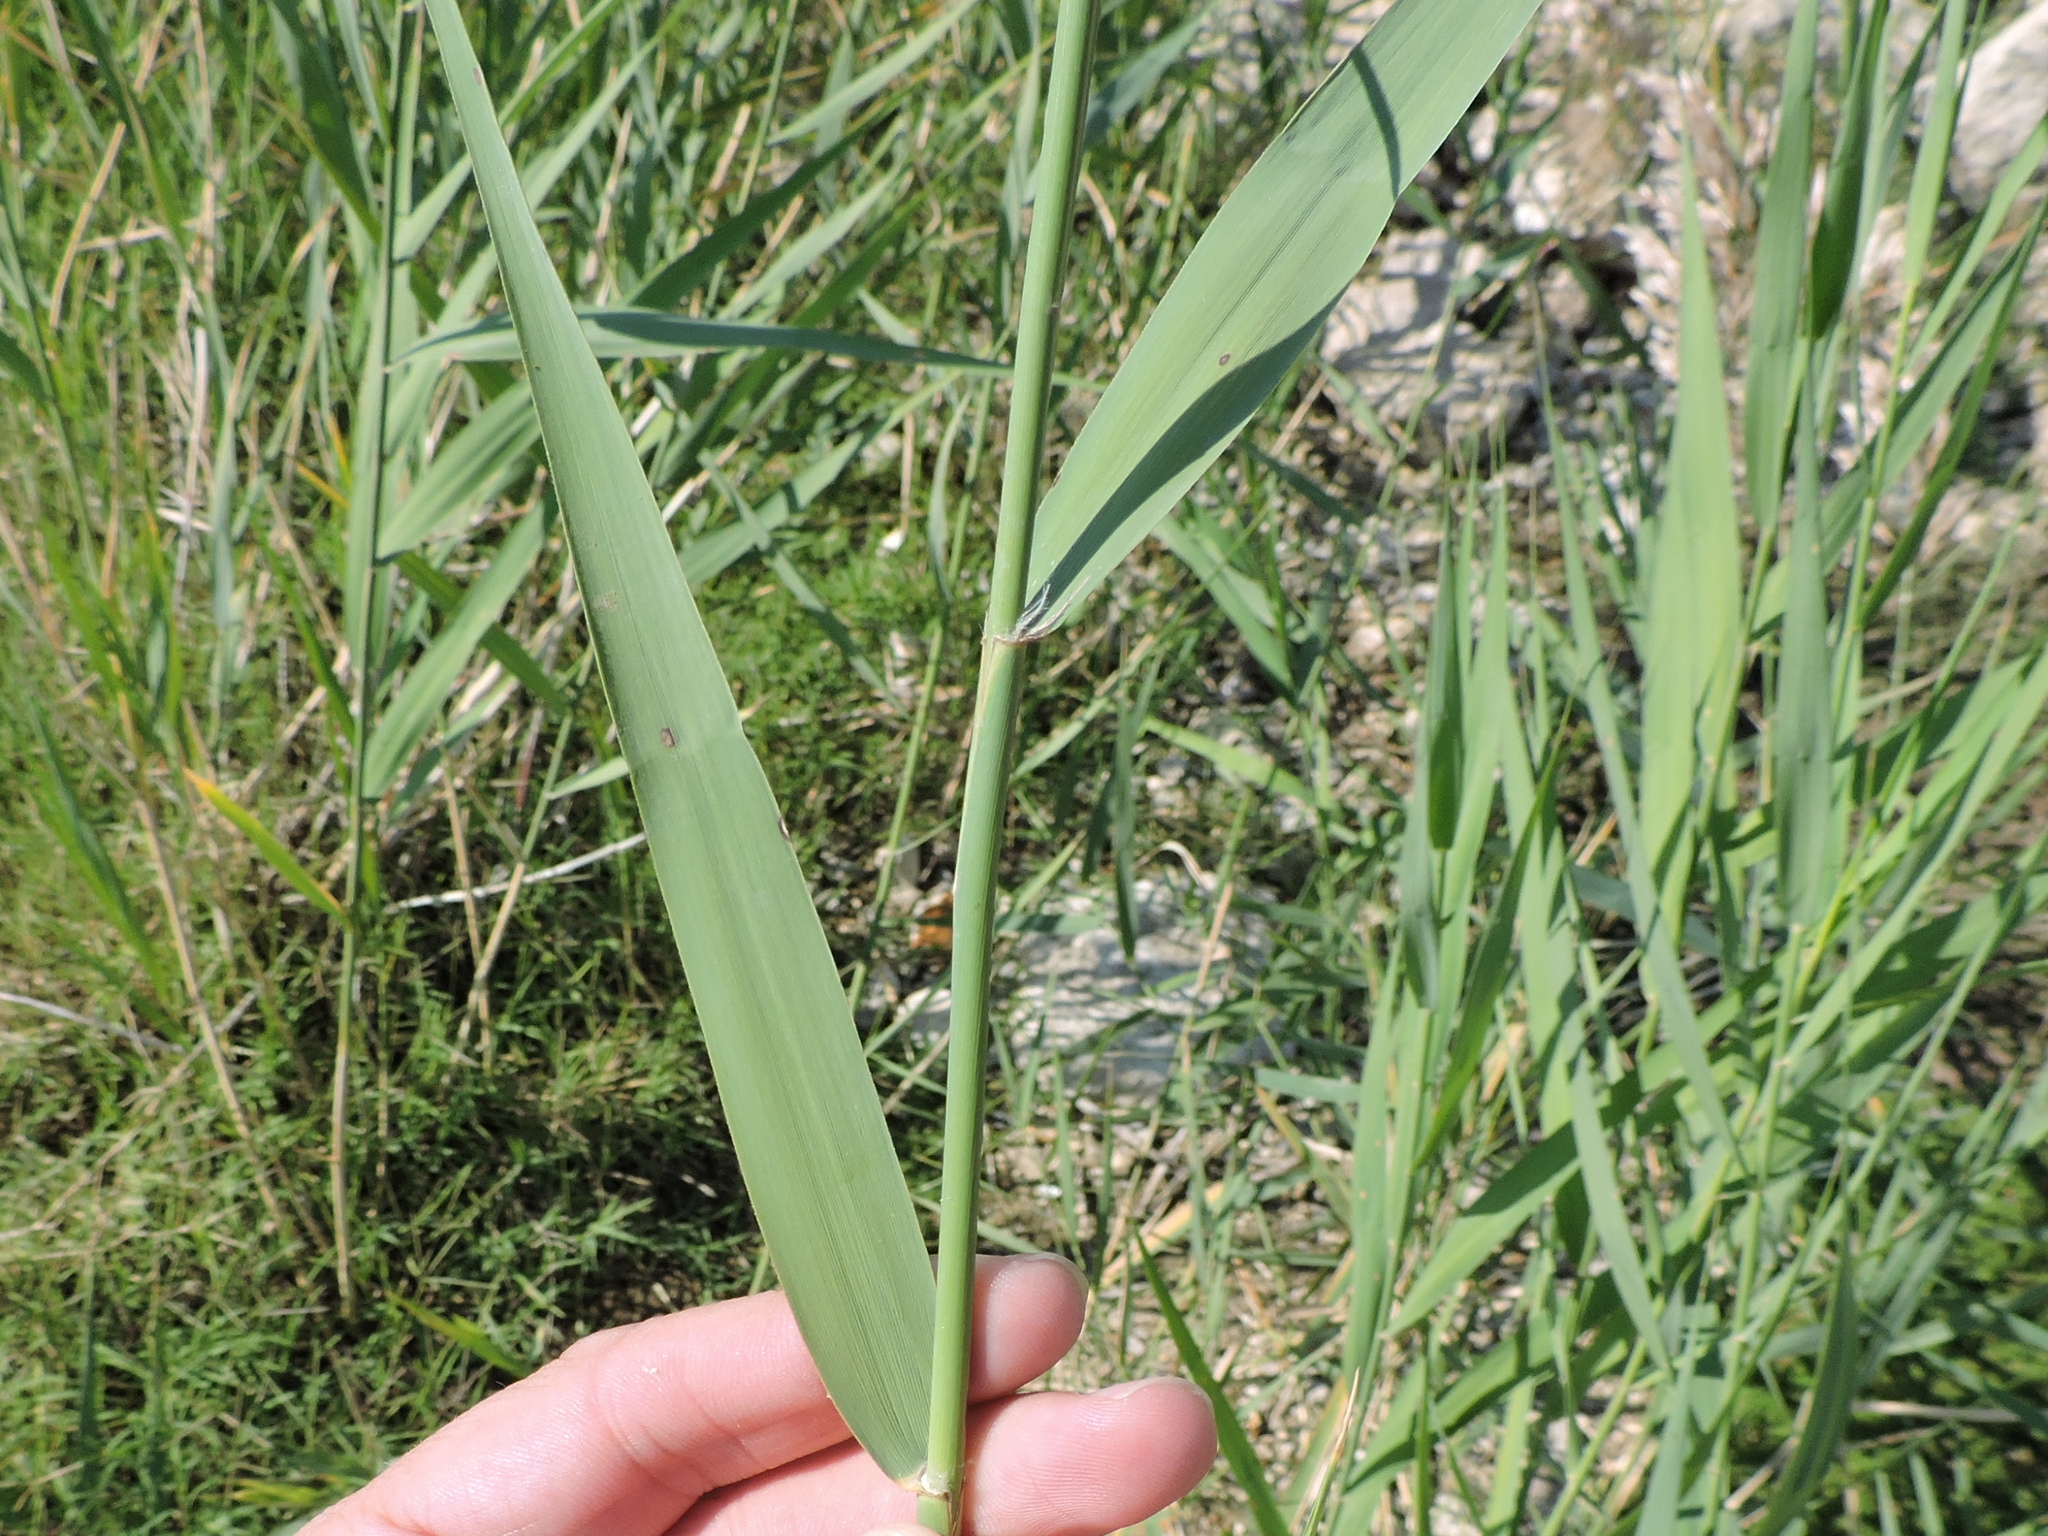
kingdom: Plantae
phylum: Tracheophyta
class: Liliopsida
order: Poales
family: Poaceae
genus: Phragmites
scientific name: Phragmites australis
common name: Common reed
